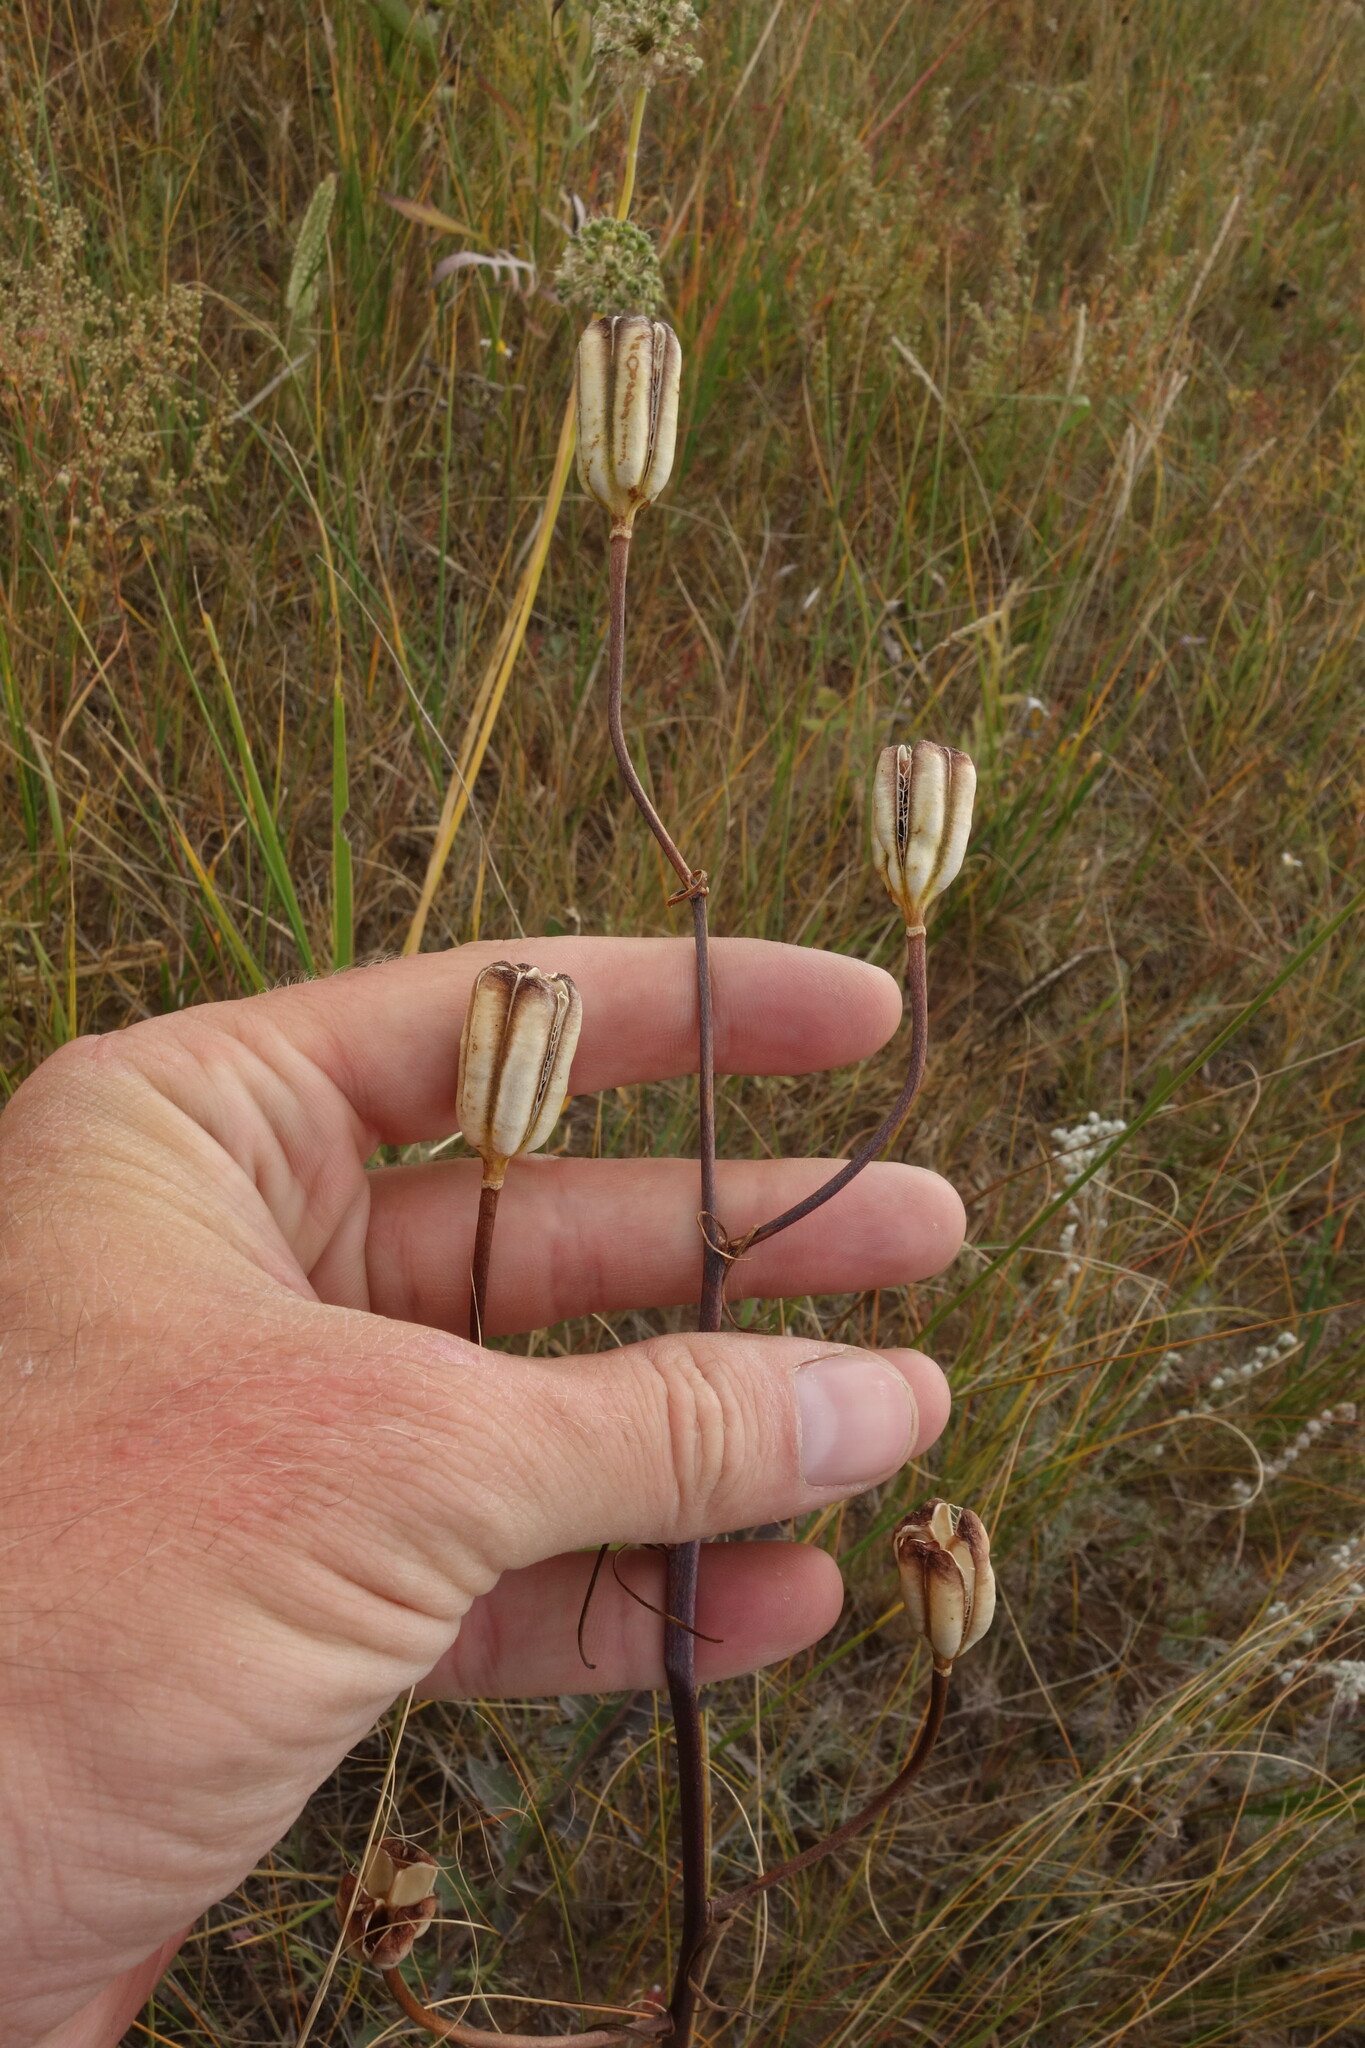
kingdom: Plantae
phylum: Tracheophyta
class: Liliopsida
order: Liliales
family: Liliaceae
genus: Lilium
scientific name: Lilium pumilum
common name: Coral lily
